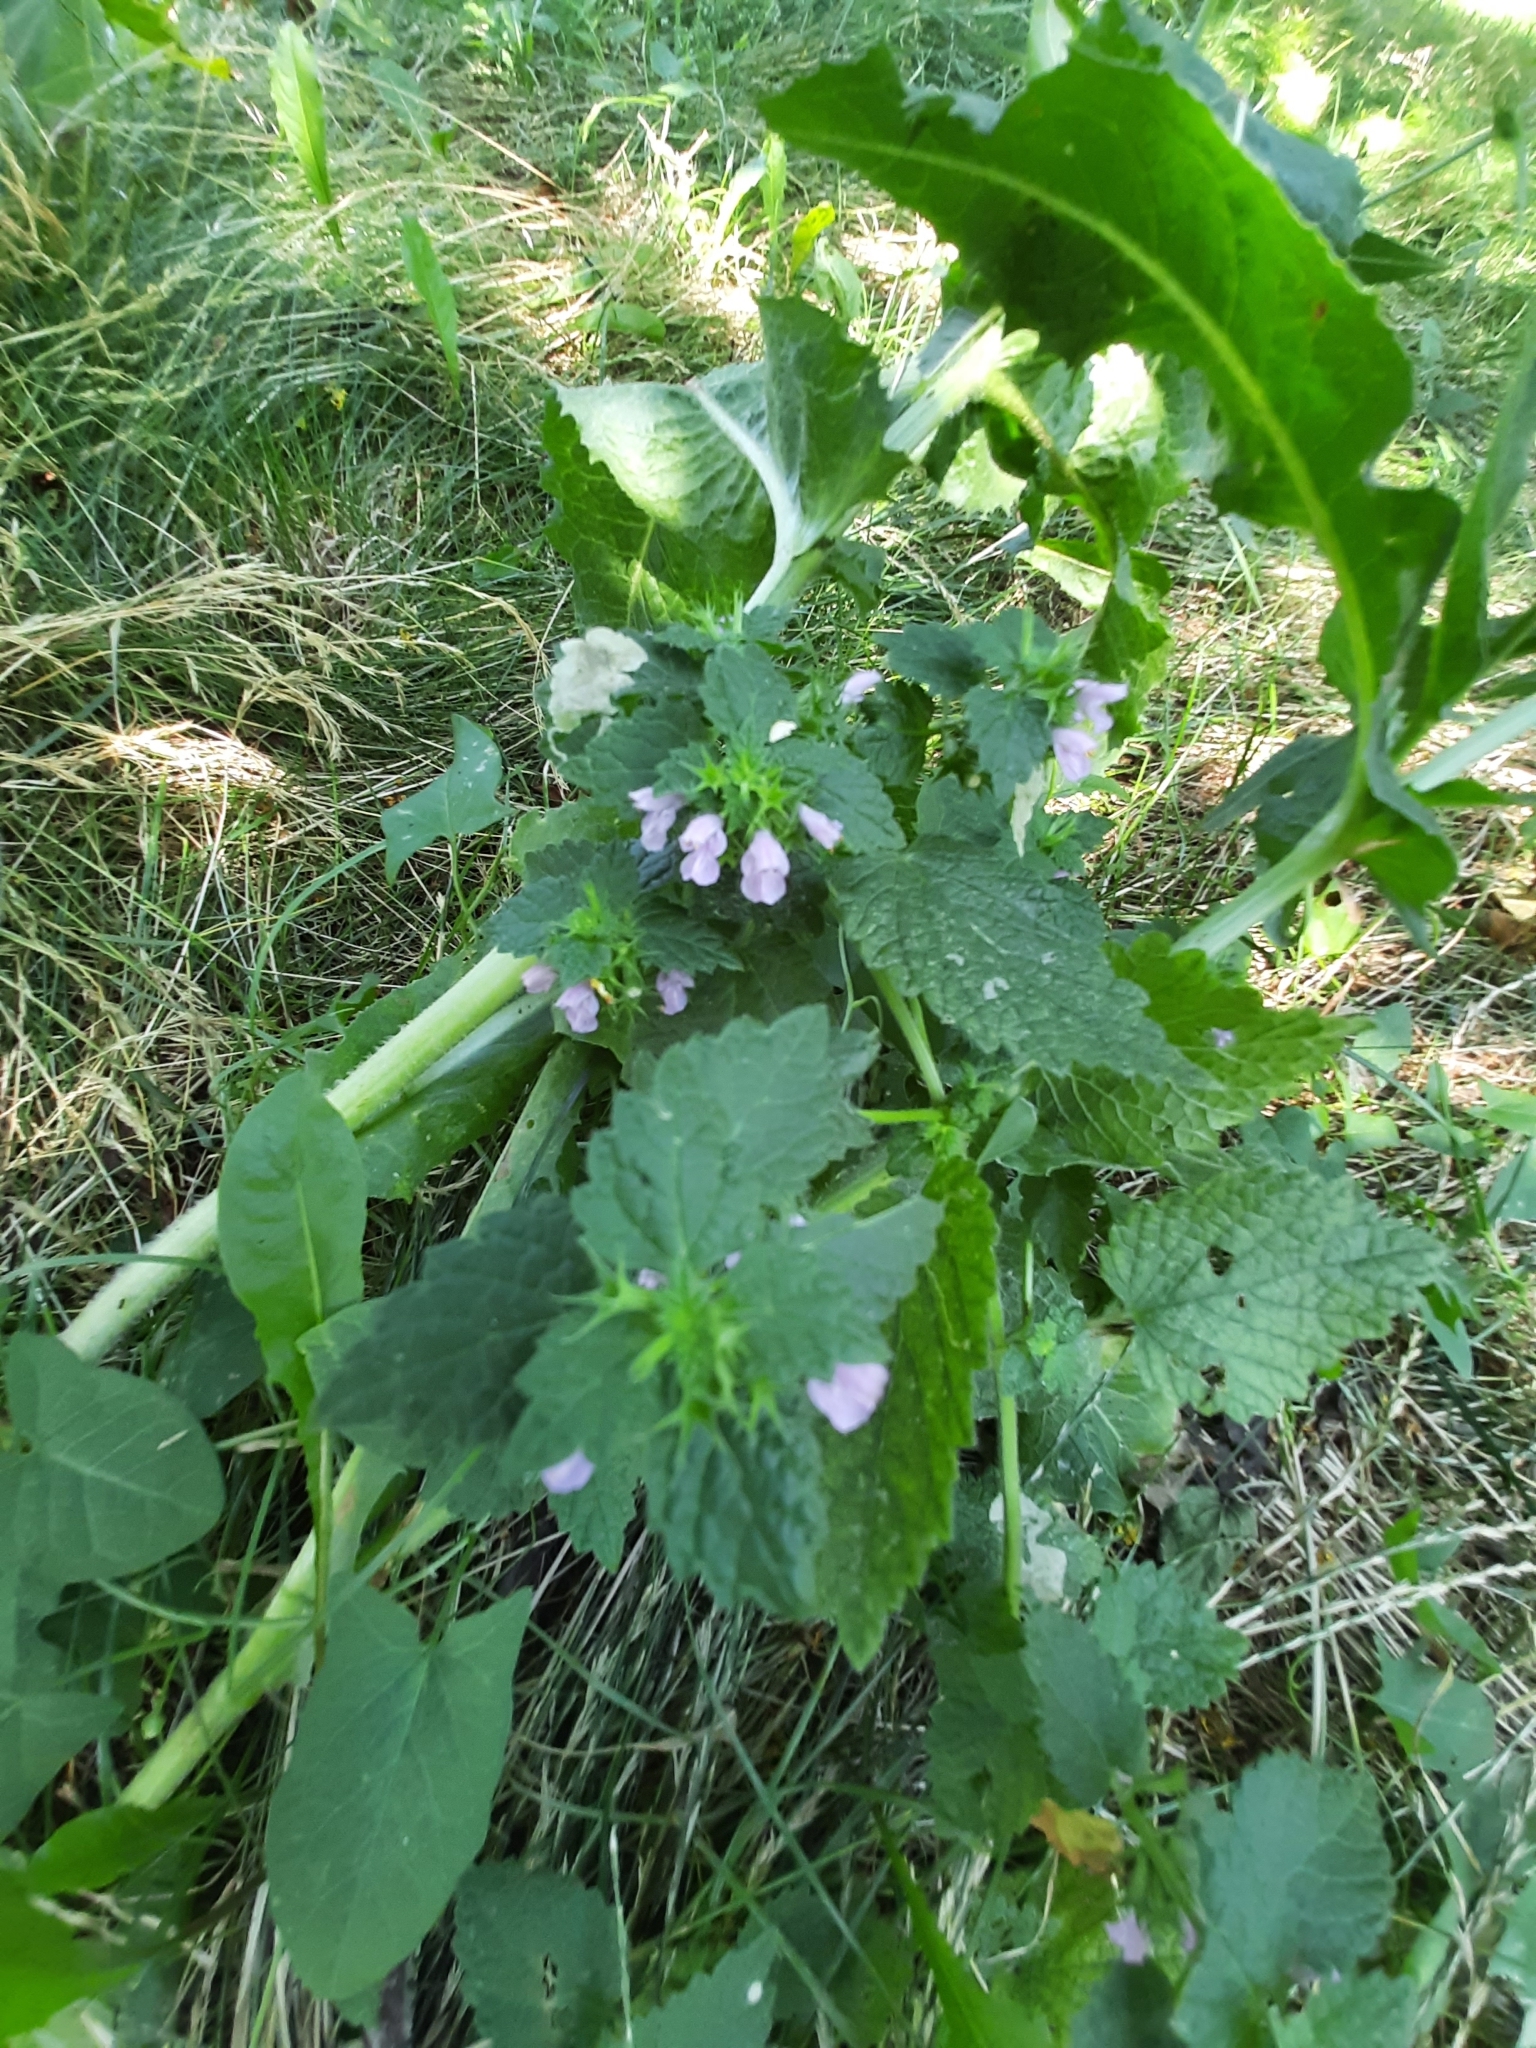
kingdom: Plantae
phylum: Tracheophyta
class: Magnoliopsida
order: Lamiales
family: Lamiaceae
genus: Ballota
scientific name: Ballota nigra
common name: Black horehound
